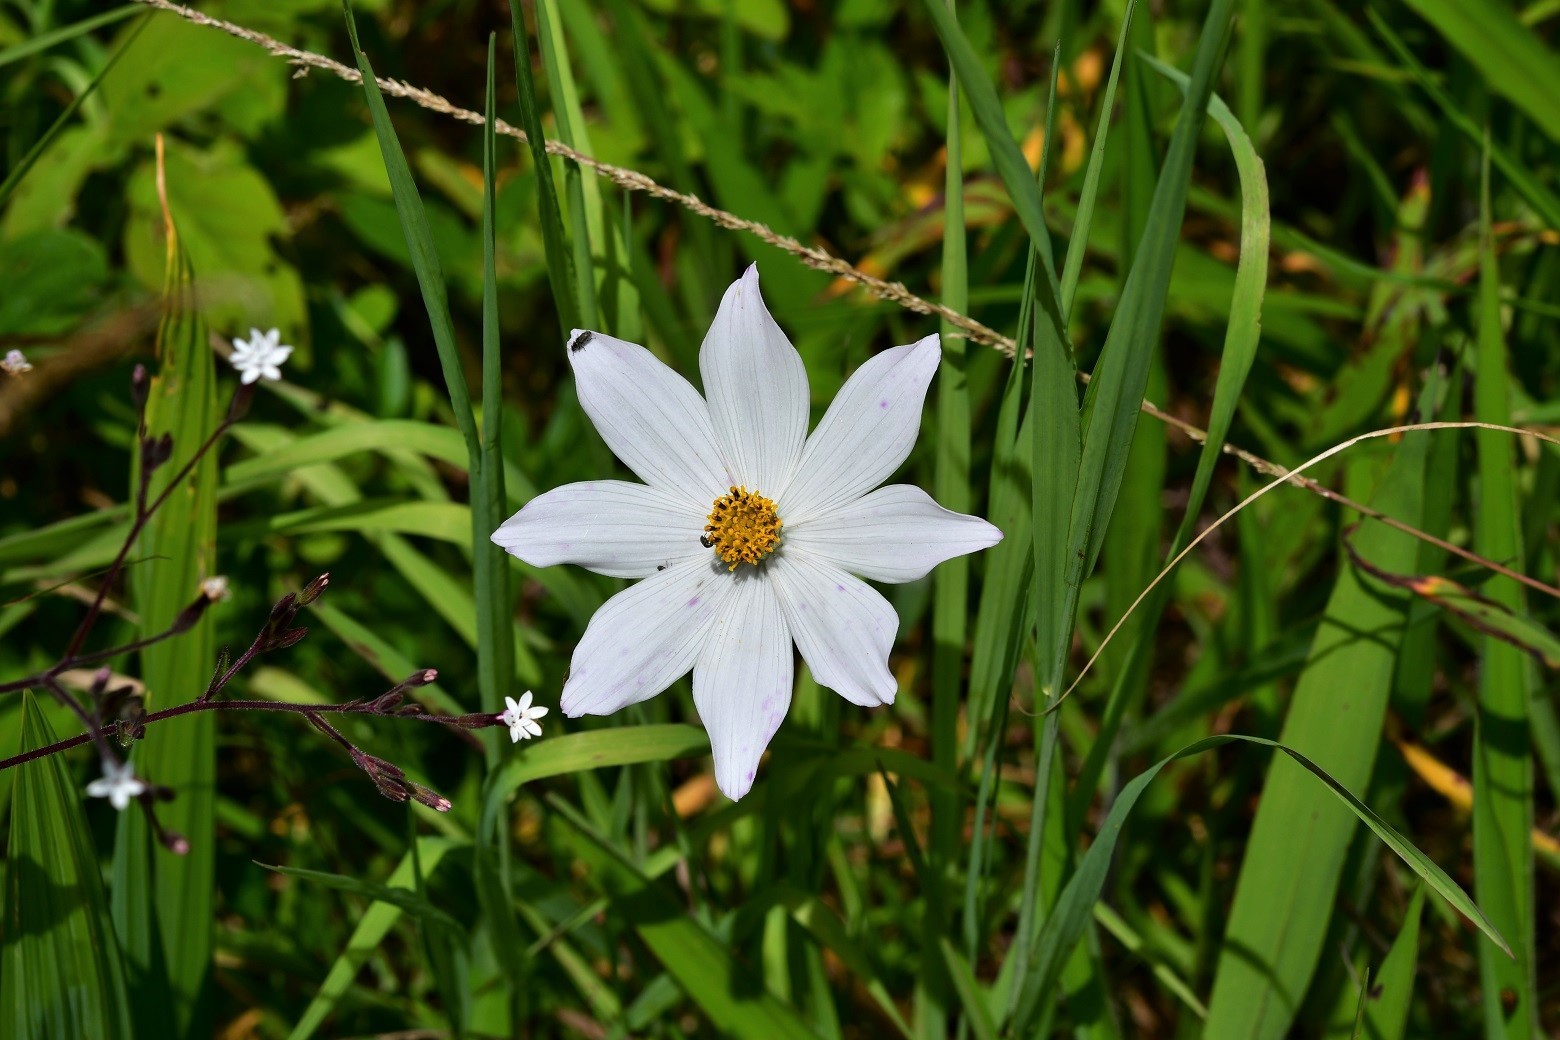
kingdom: Plantae
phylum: Tracheophyta
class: Magnoliopsida
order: Asterales
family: Asteraceae
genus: Cosmos
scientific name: Cosmos diversifolius
